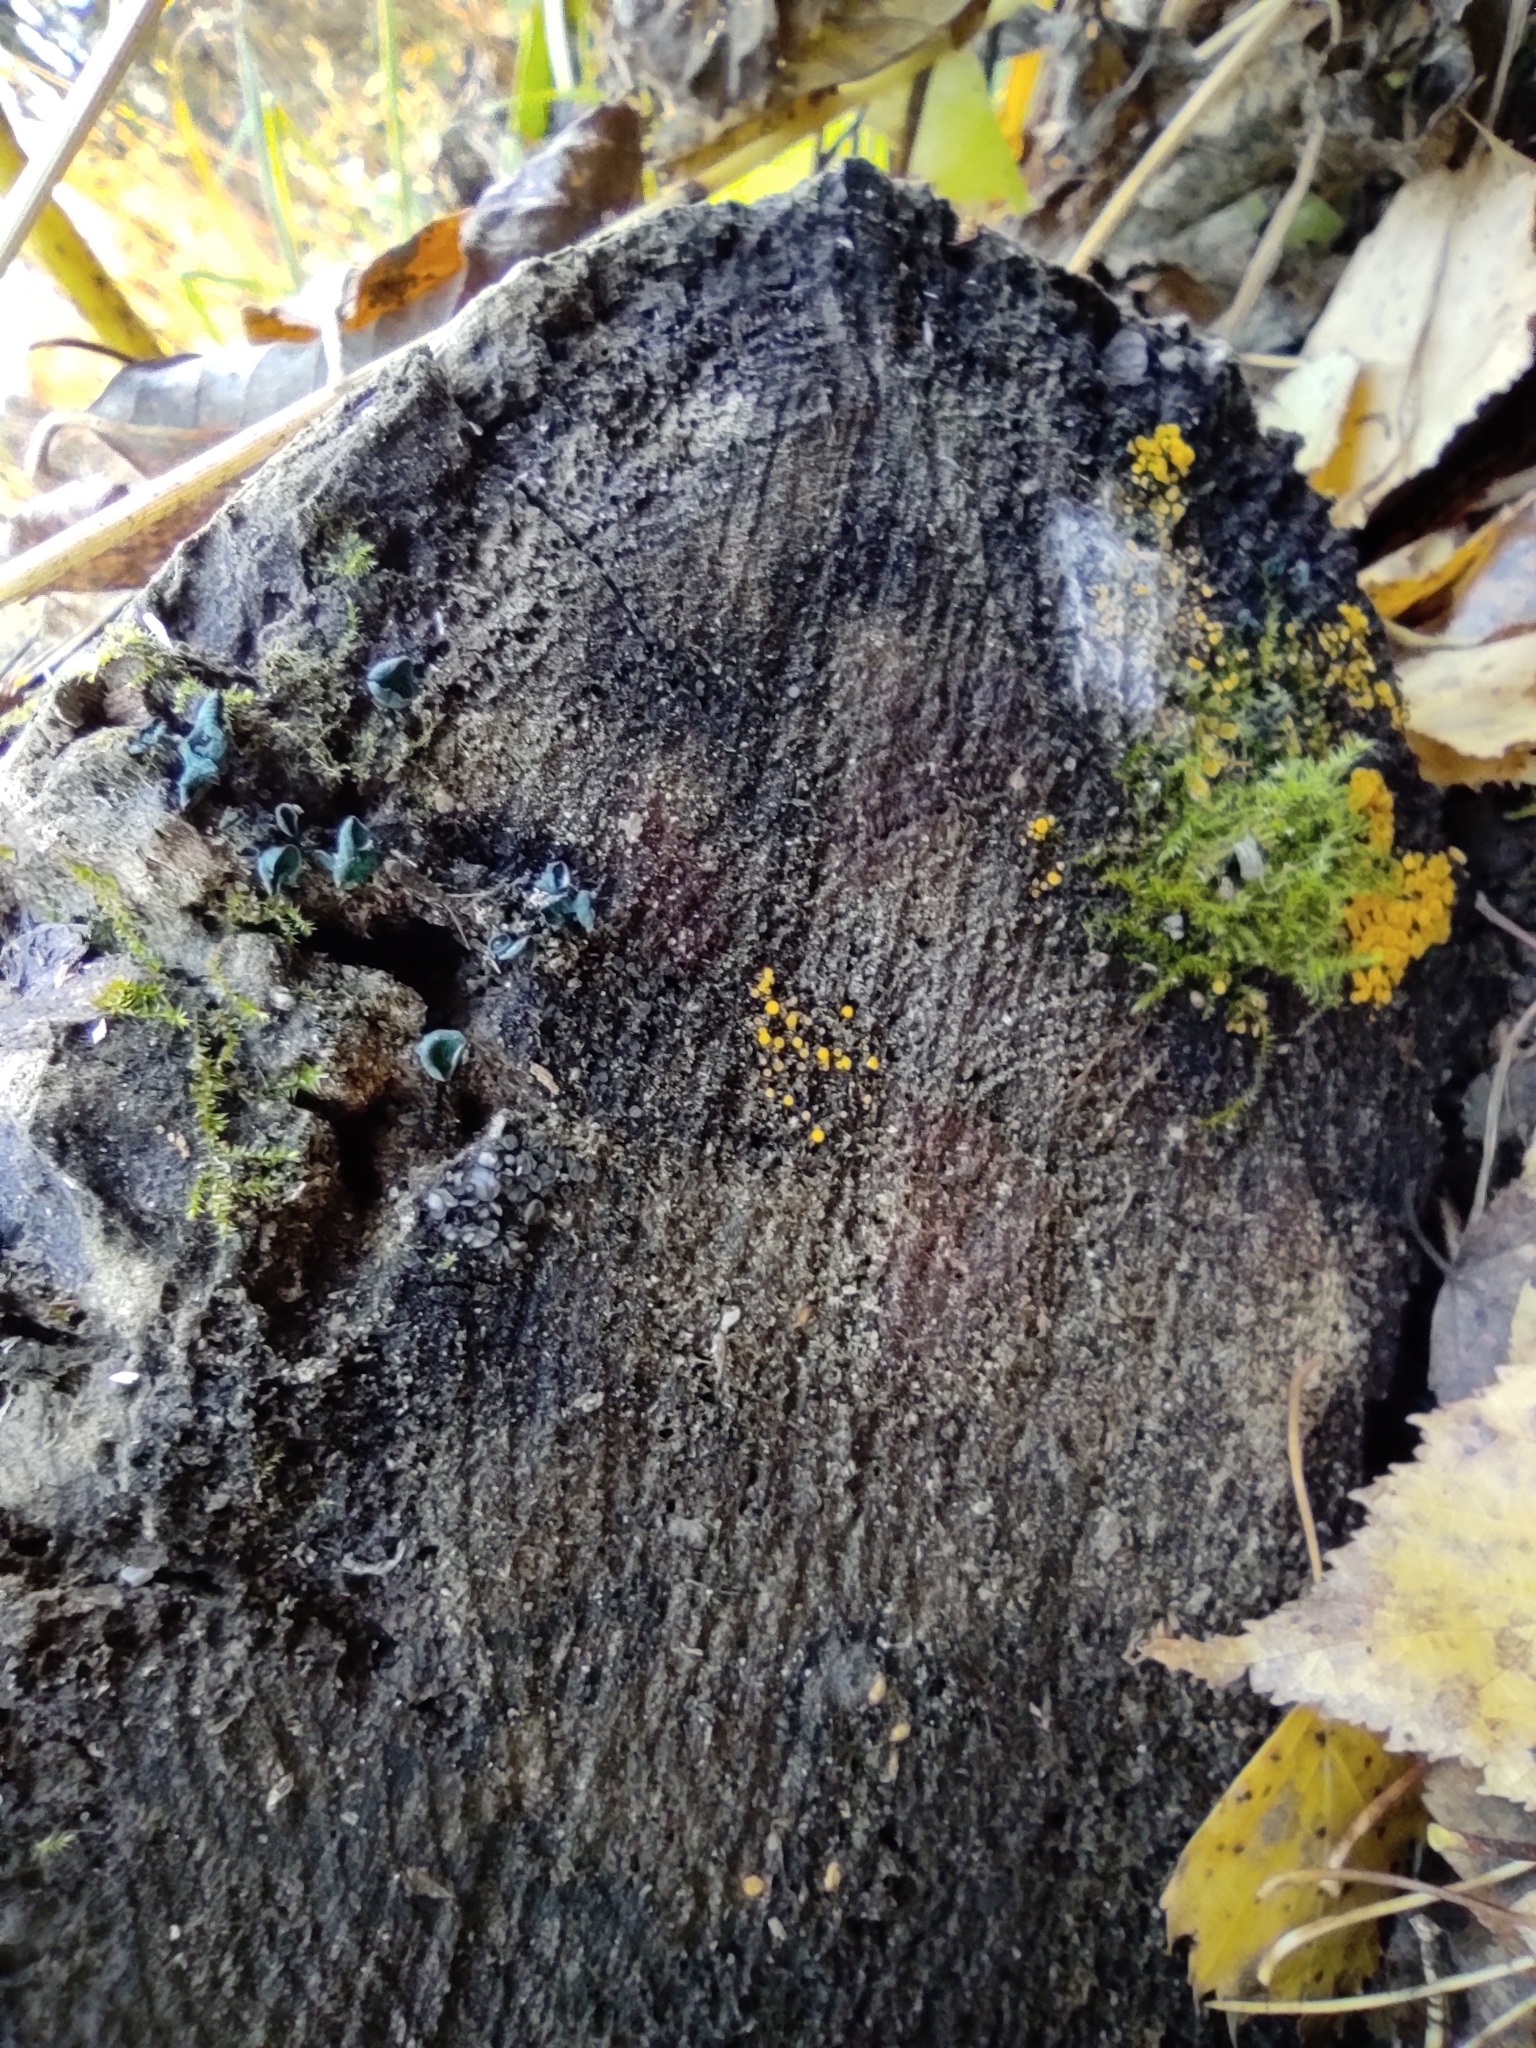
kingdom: Fungi
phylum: Ascomycota
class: Leotiomycetes
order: Helotiales
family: Pezizellaceae
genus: Calycina
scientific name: Calycina citrina
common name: Yellow fairy cups
